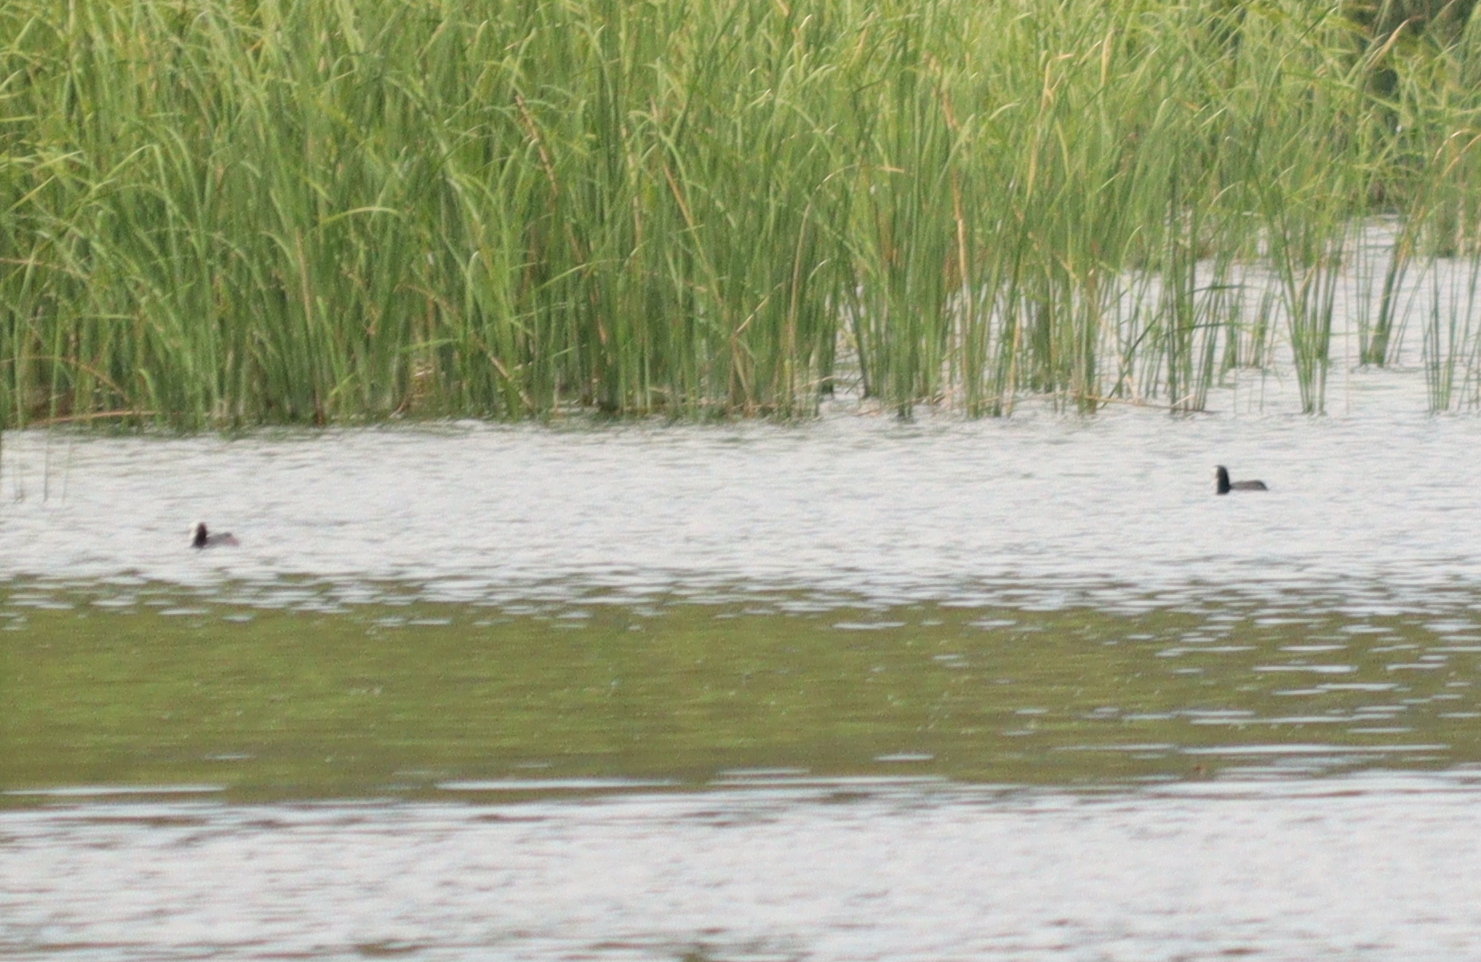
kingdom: Animalia
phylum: Chordata
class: Aves
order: Gruiformes
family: Rallidae
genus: Fulica
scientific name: Fulica atra
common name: Eurasian coot
